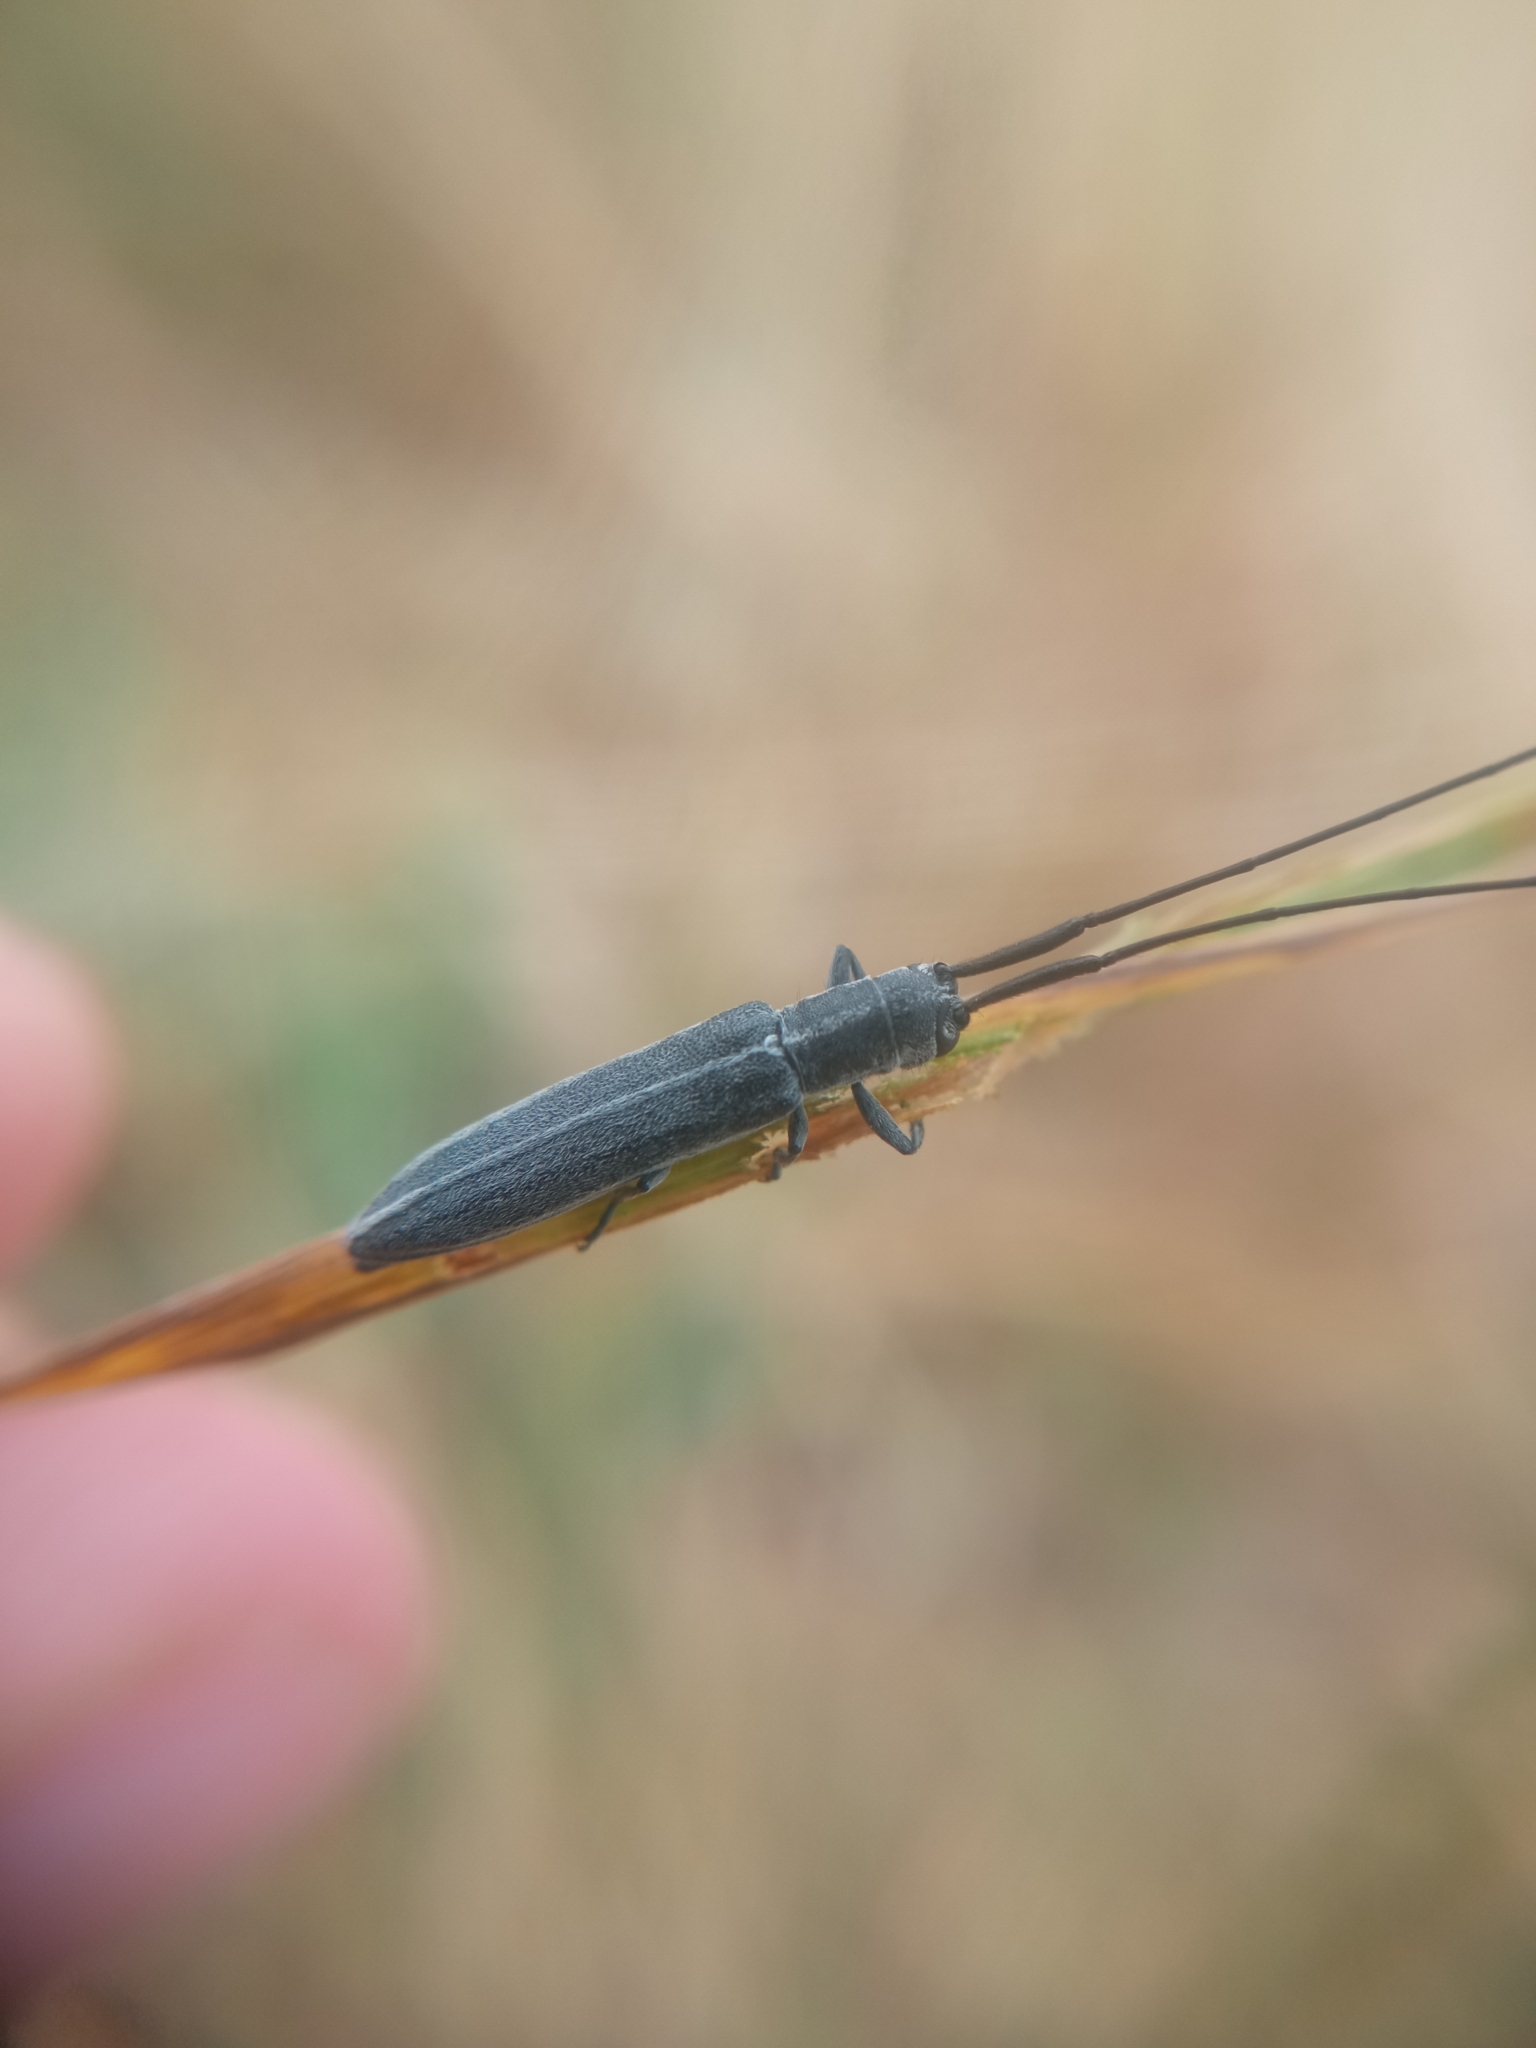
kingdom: Animalia
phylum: Arthropoda
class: Insecta
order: Coleoptera
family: Cerambycidae
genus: Calamobius
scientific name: Calamobius filum
